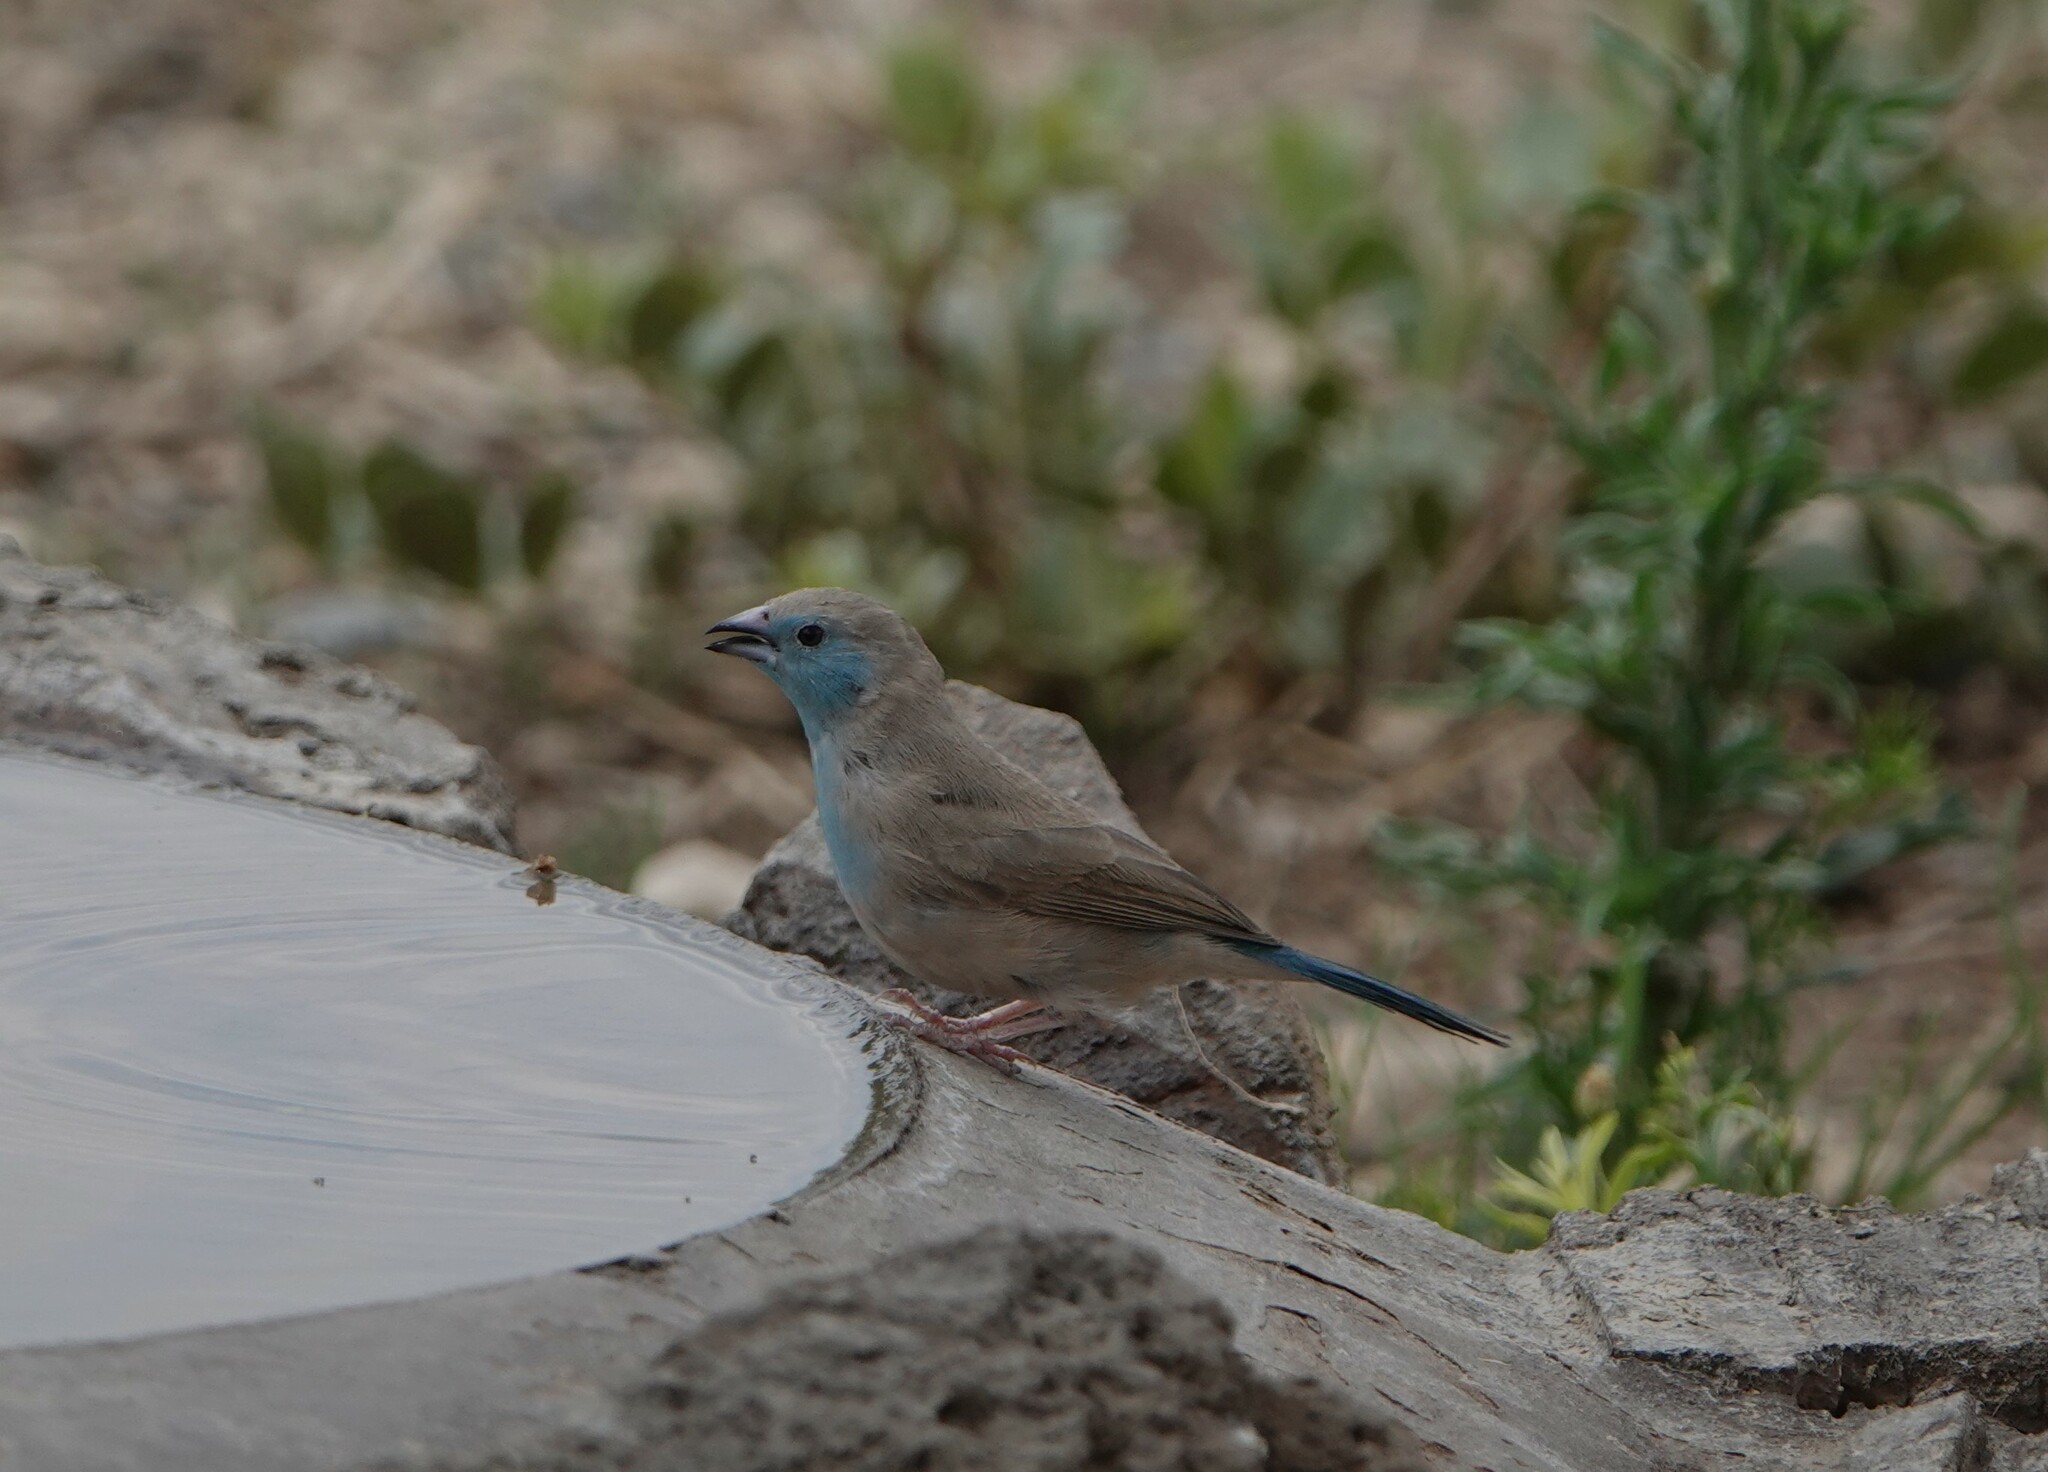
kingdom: Animalia
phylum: Chordata
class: Aves
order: Passeriformes
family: Estrildidae
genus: Uraeginthus
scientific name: Uraeginthus angolensis
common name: Blue waxbill
